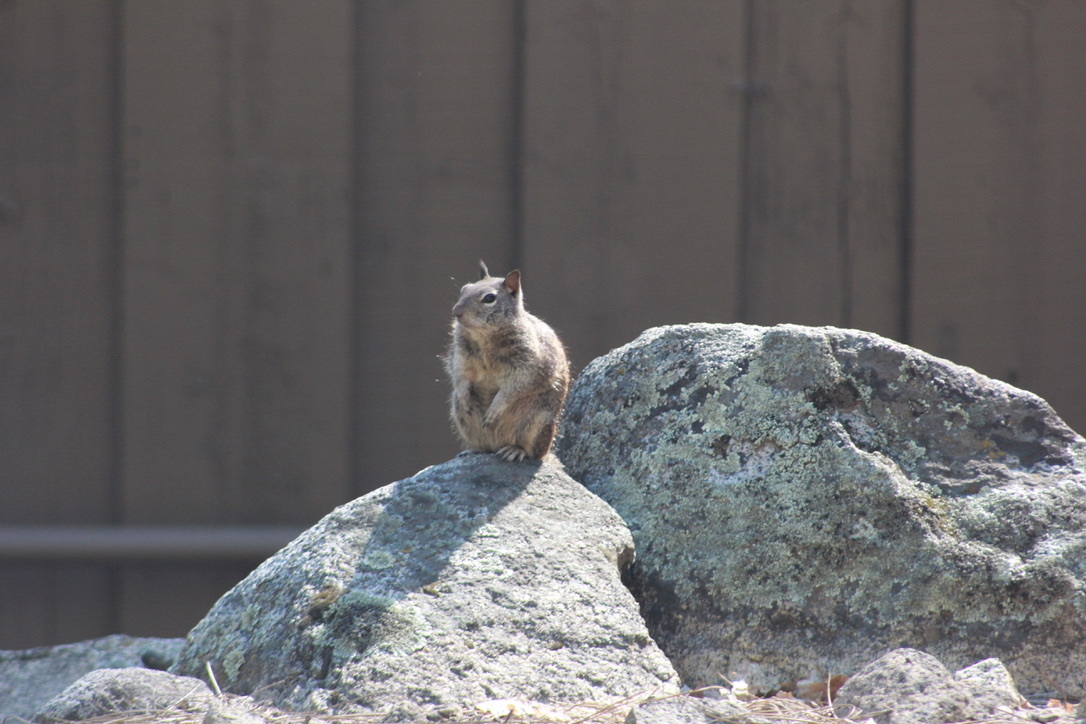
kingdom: Animalia
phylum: Chordata
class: Mammalia
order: Rodentia
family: Sciuridae
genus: Otospermophilus
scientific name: Otospermophilus beecheyi
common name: California ground squirrel
